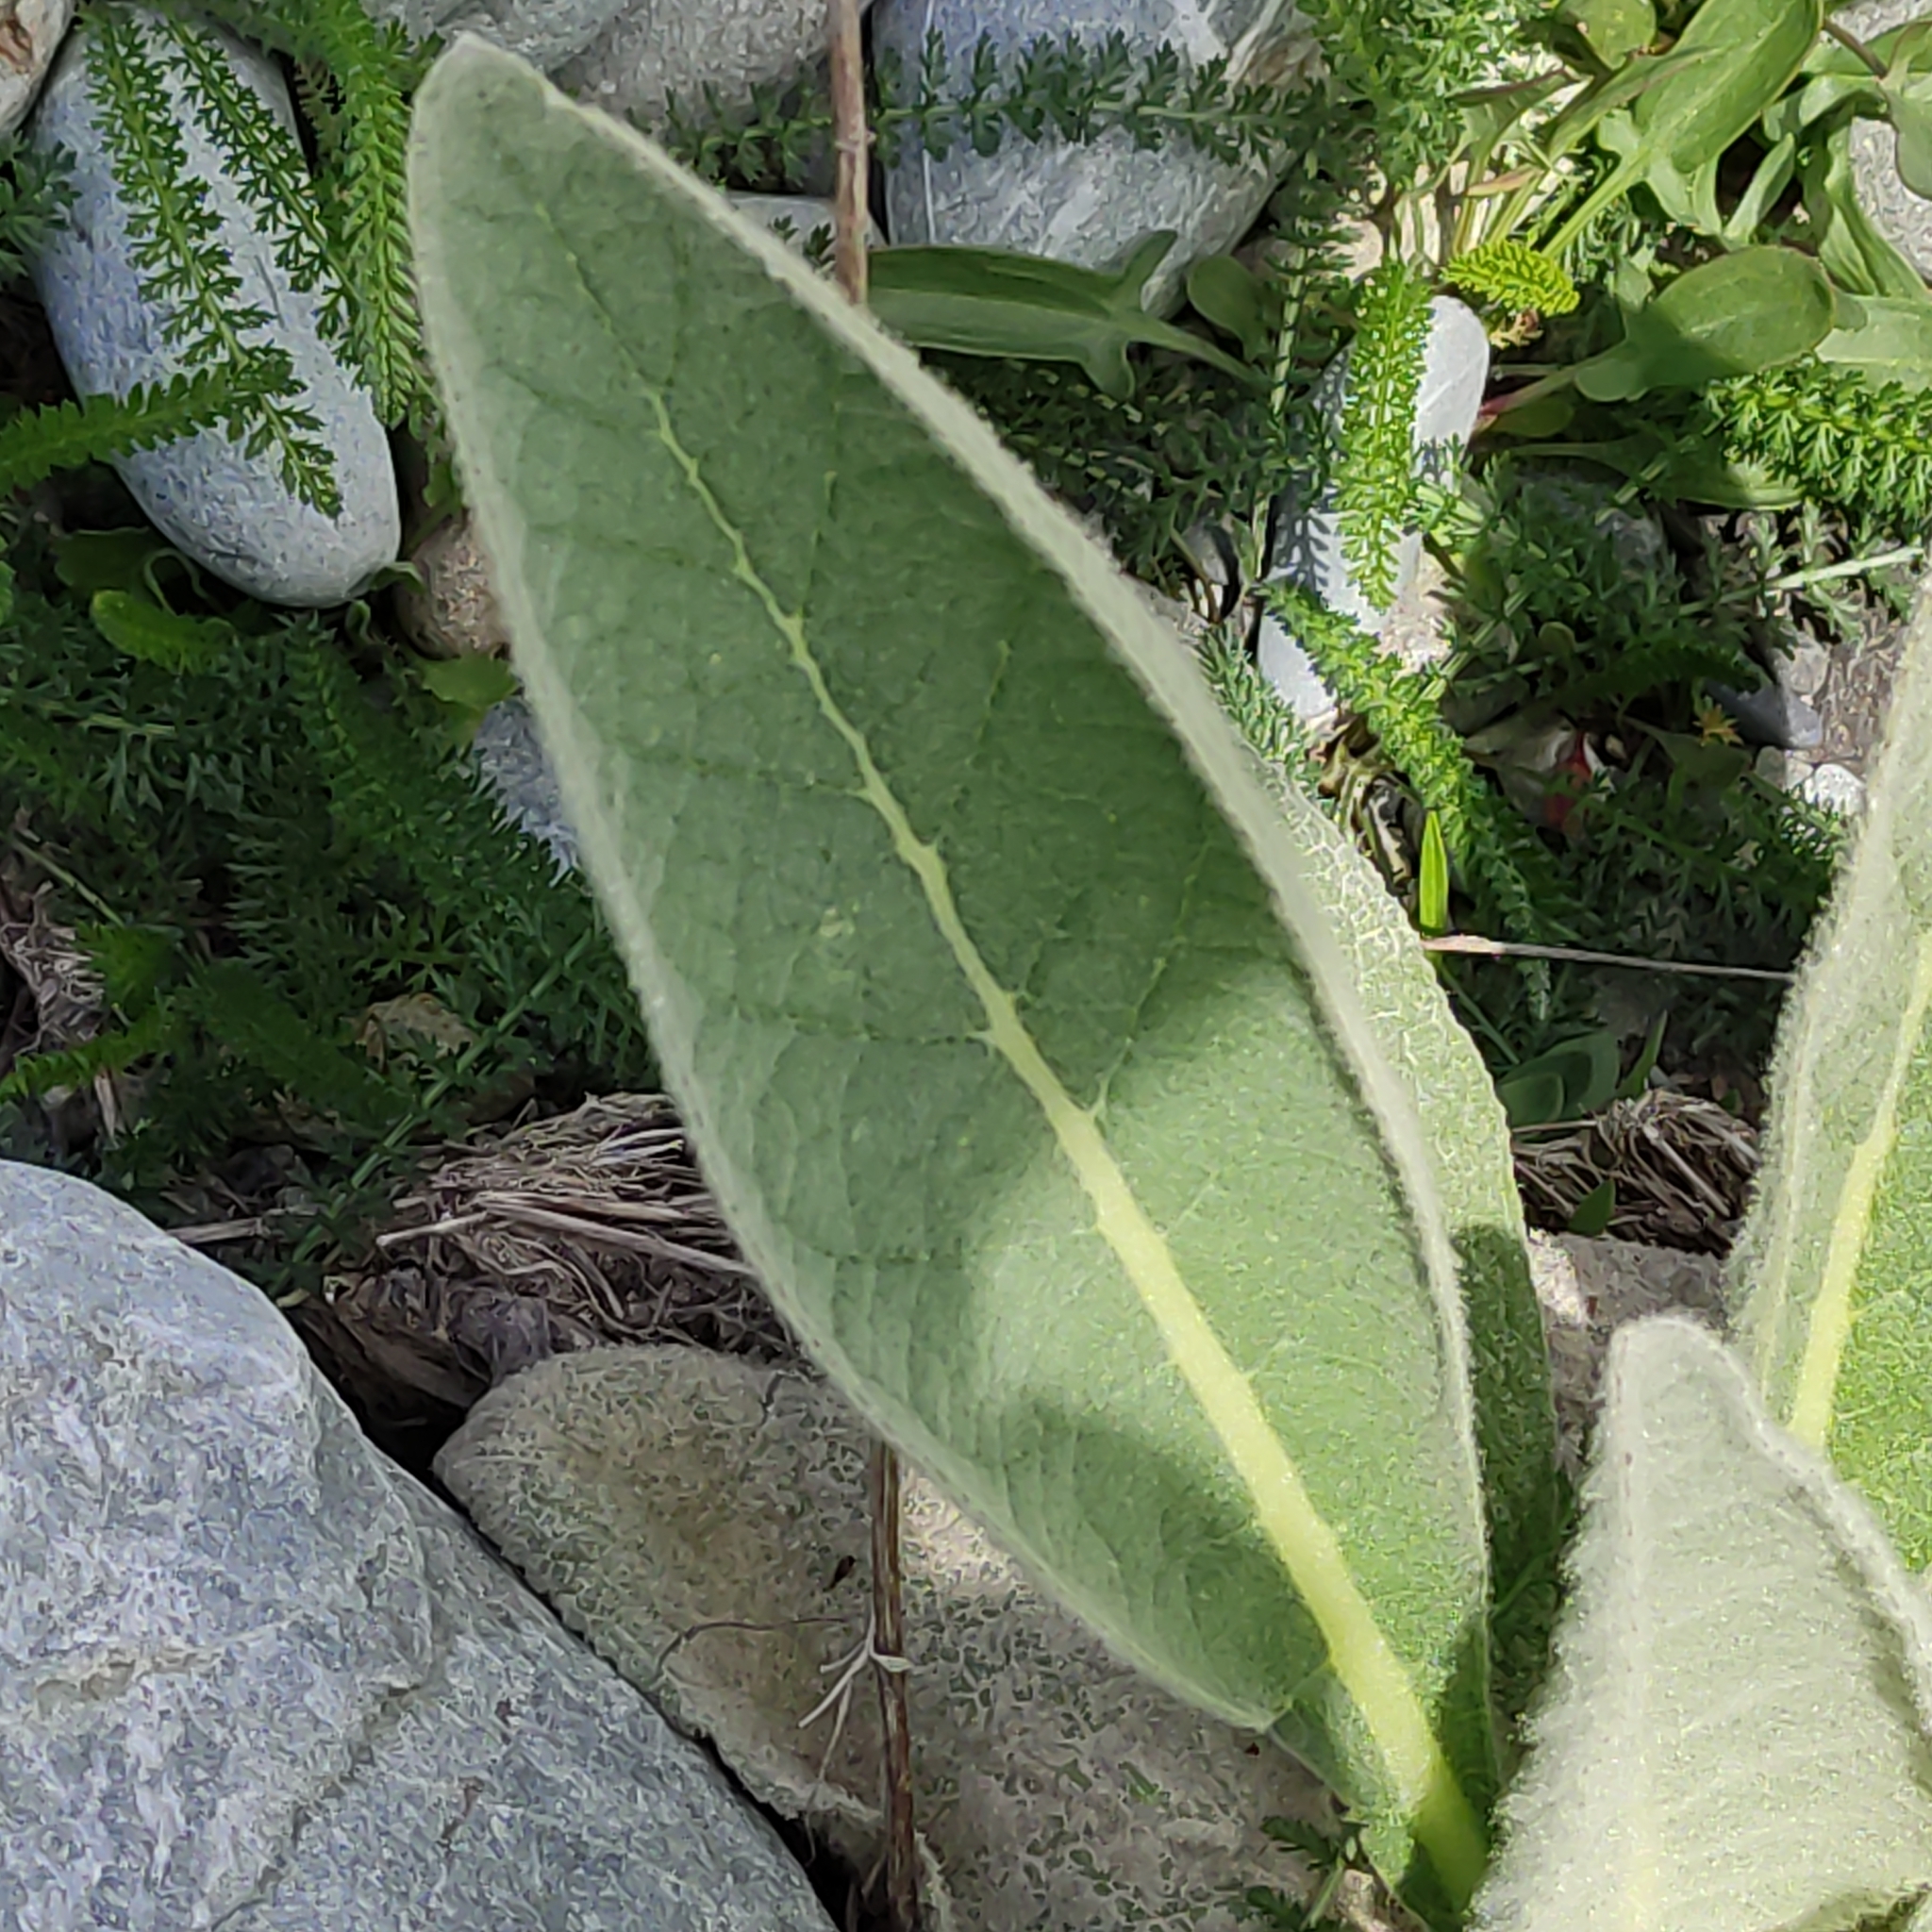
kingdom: Plantae
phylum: Tracheophyta
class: Magnoliopsida
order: Lamiales
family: Scrophulariaceae
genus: Verbascum
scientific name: Verbascum thapsus
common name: Common mullein
